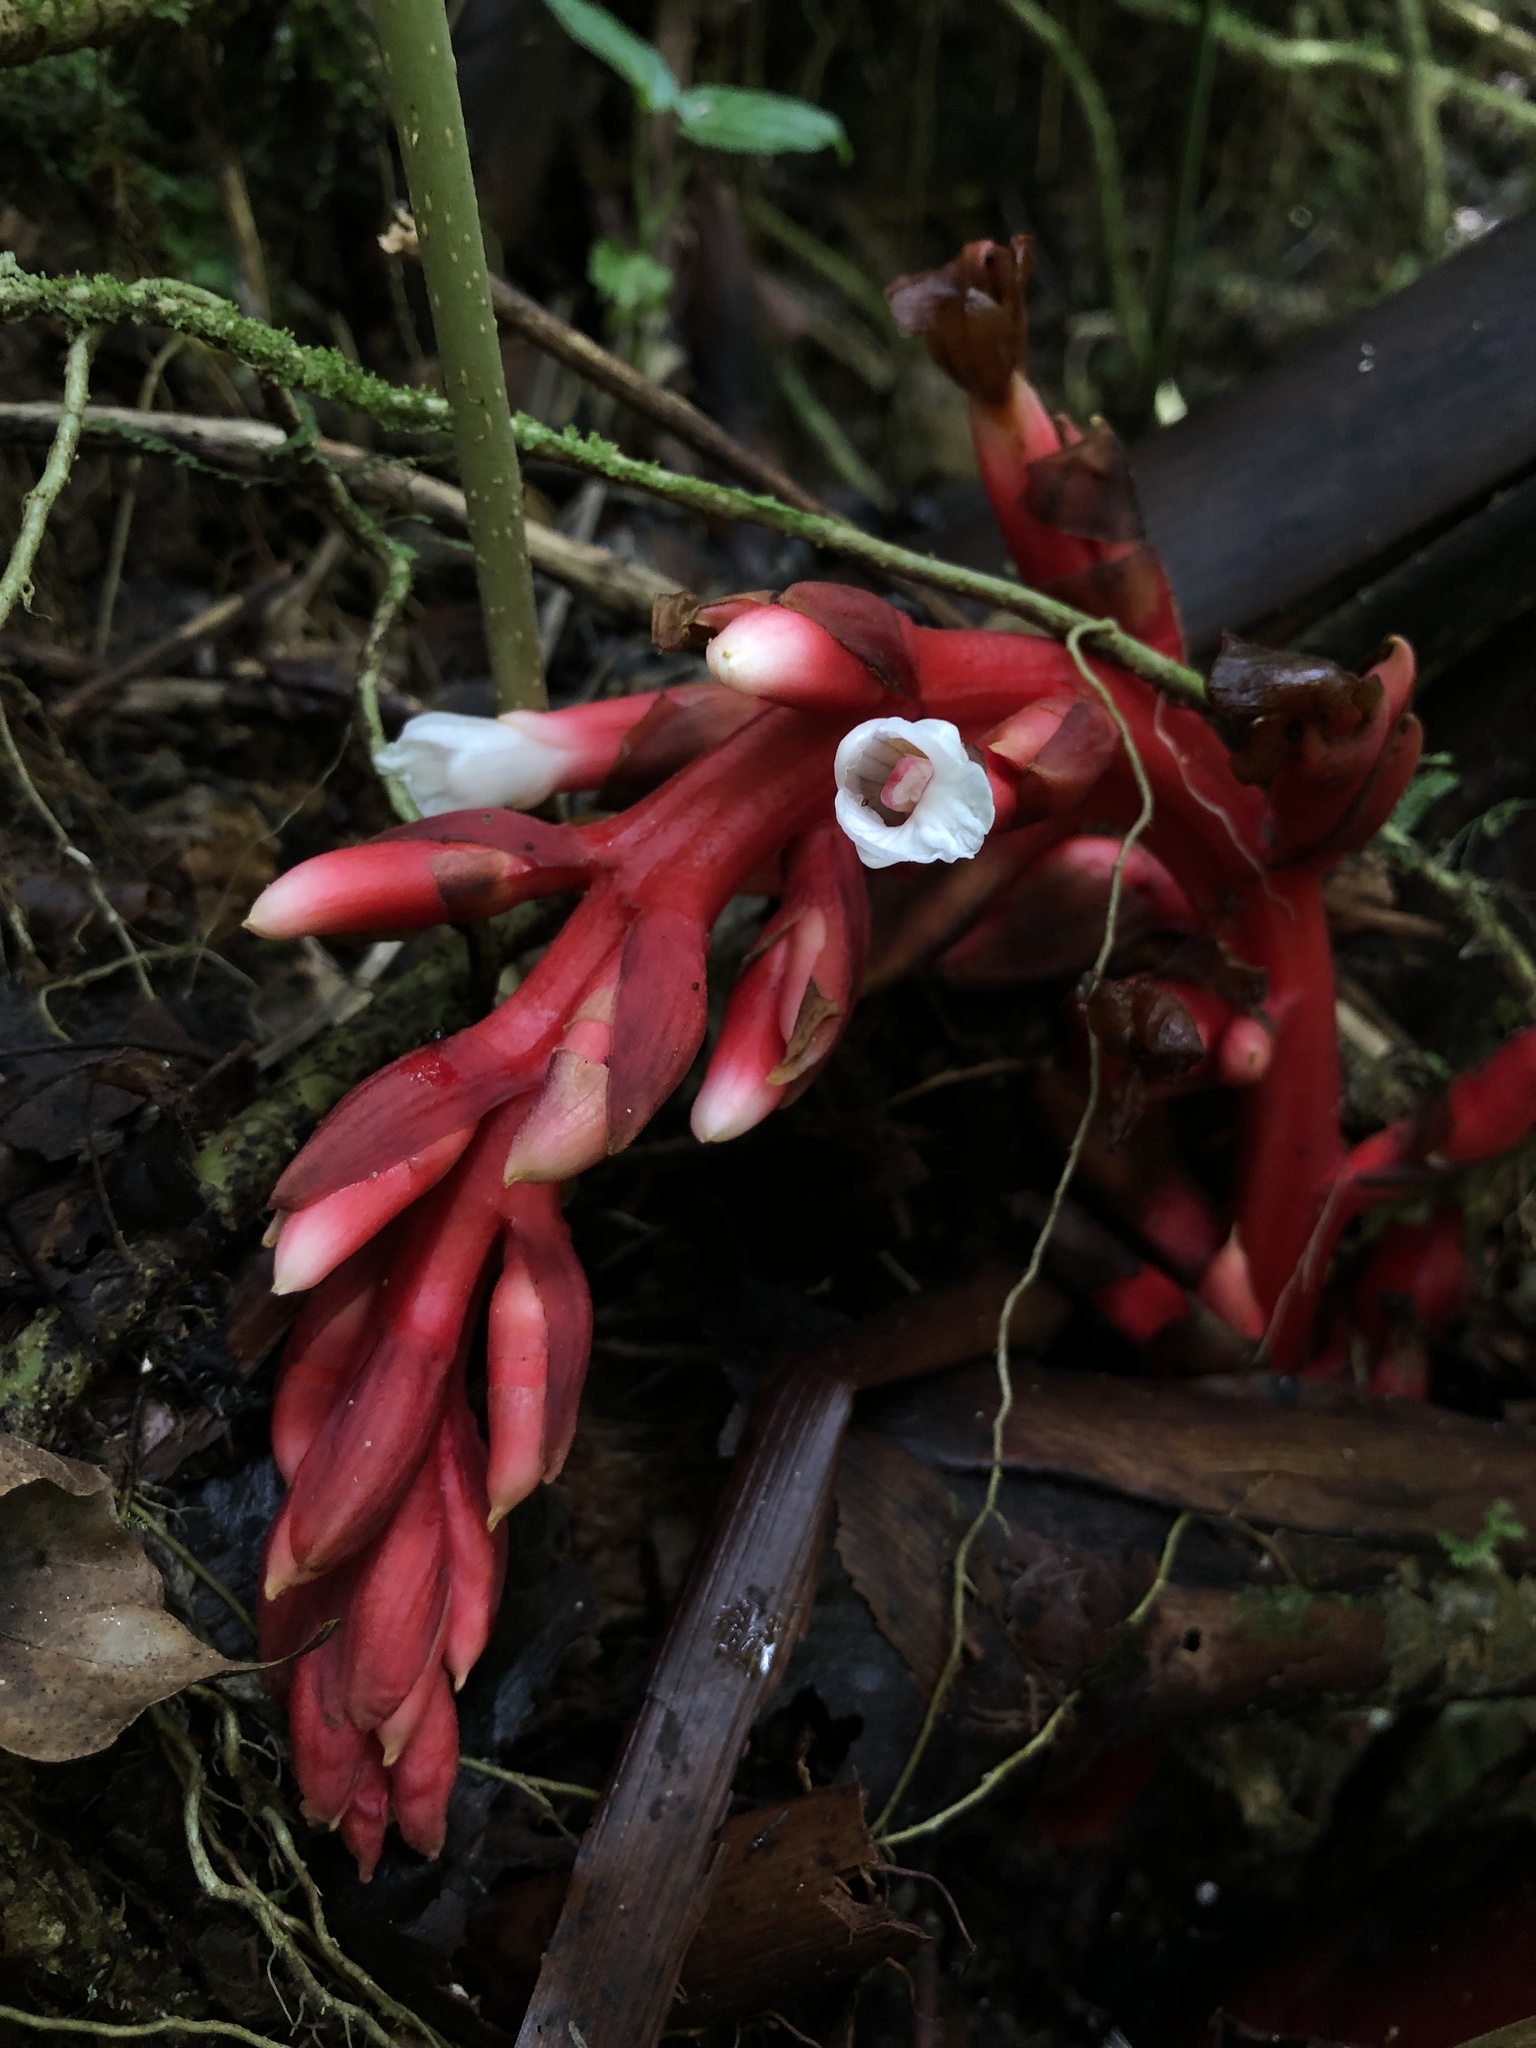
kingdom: Plantae
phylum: Tracheophyta
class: Liliopsida
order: Zingiberales
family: Zingiberaceae
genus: Renealmia
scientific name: Renealmia ligulata
